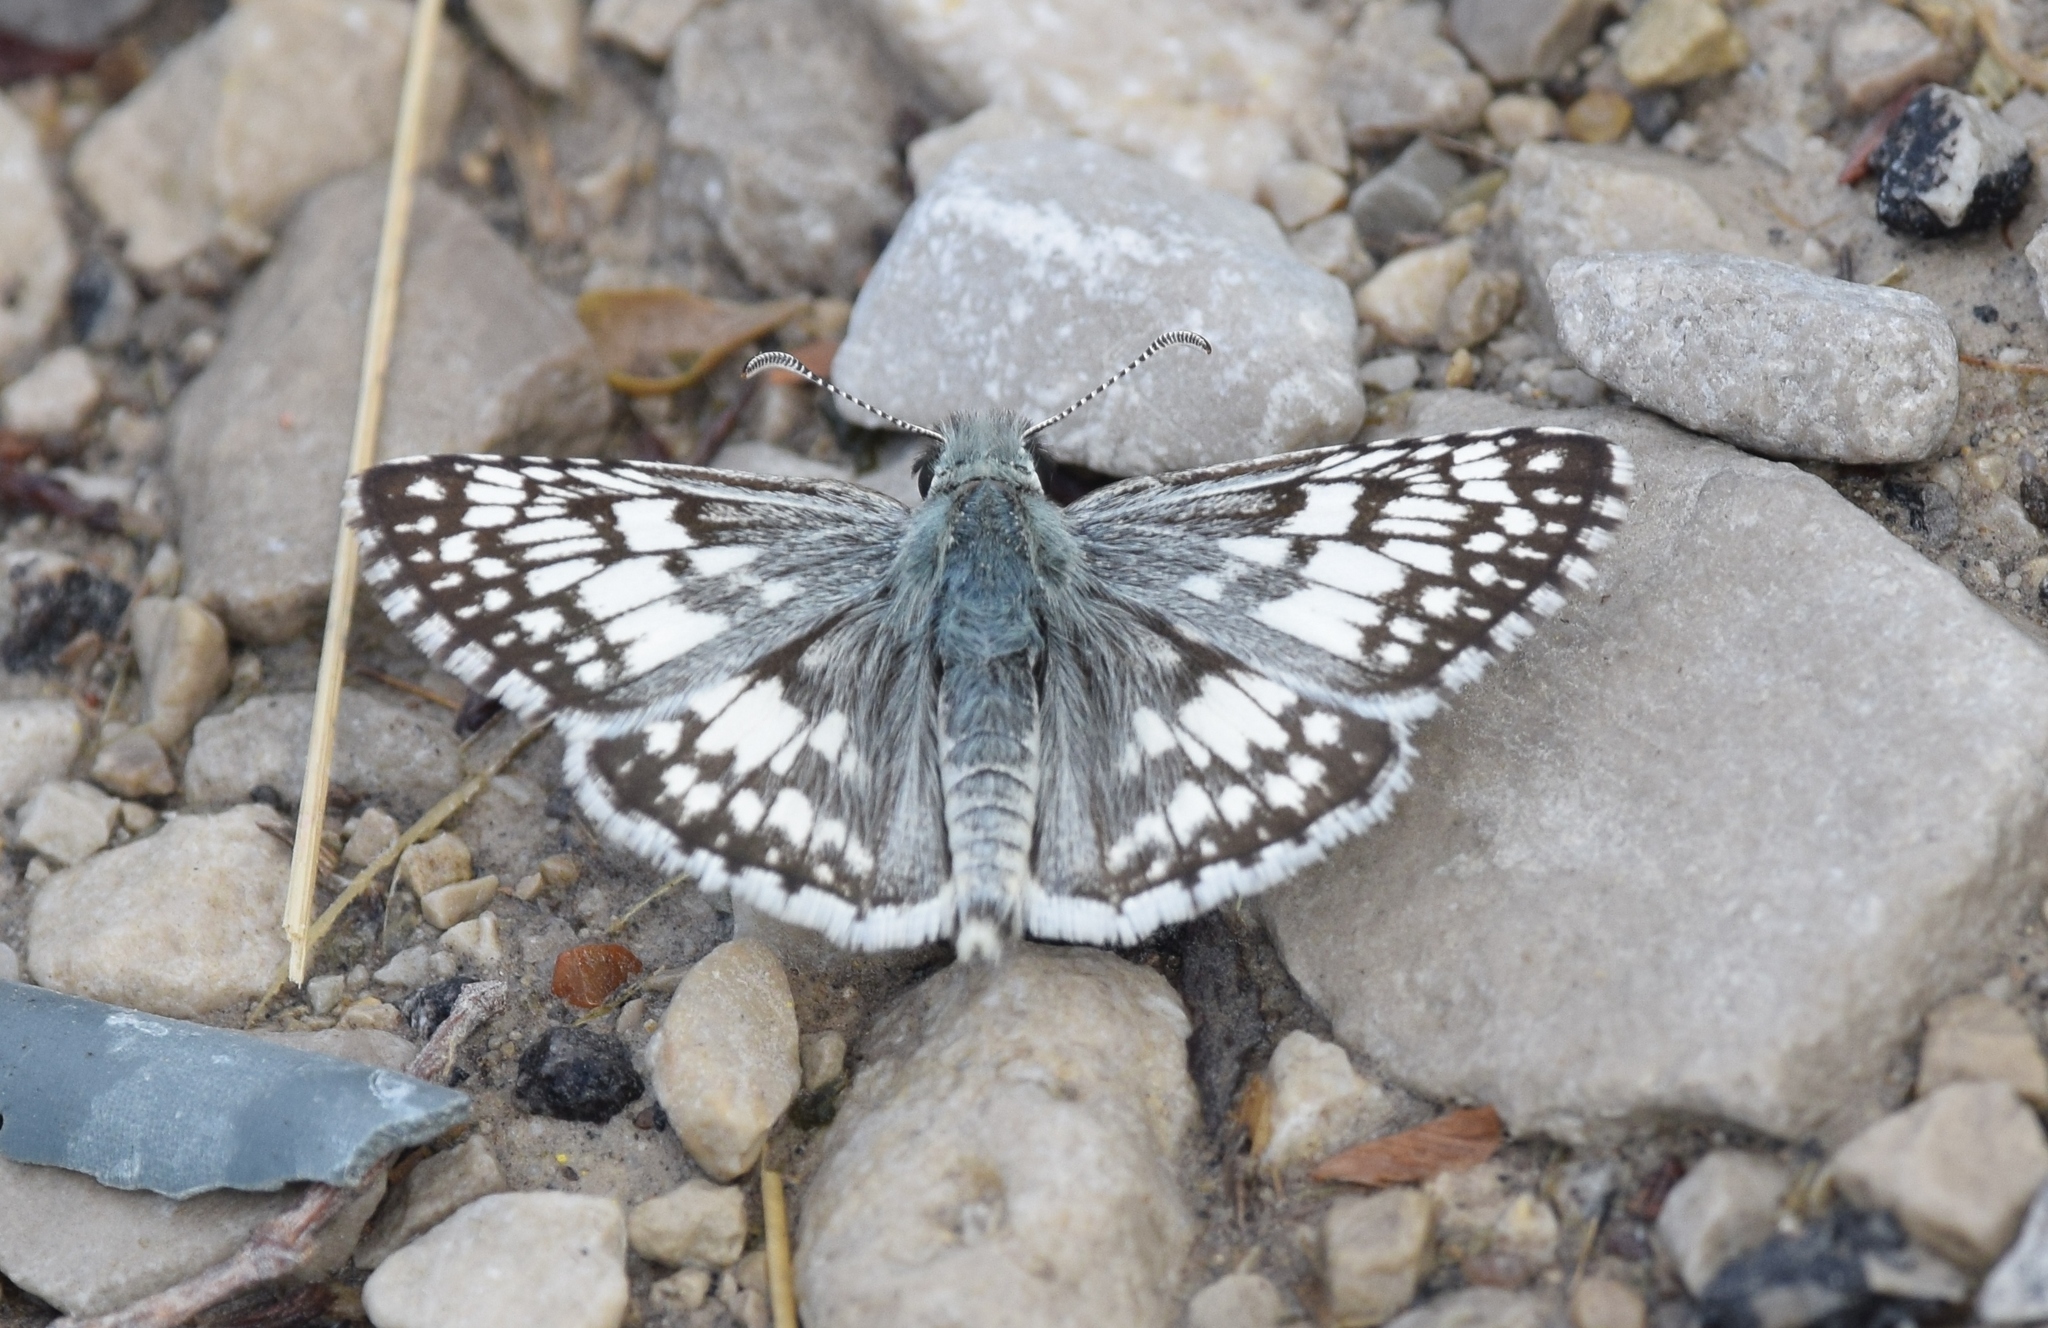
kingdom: Animalia
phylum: Arthropoda
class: Insecta
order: Lepidoptera
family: Hesperiidae
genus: Burnsius
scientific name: Burnsius communis
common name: Common checkered-skipper
